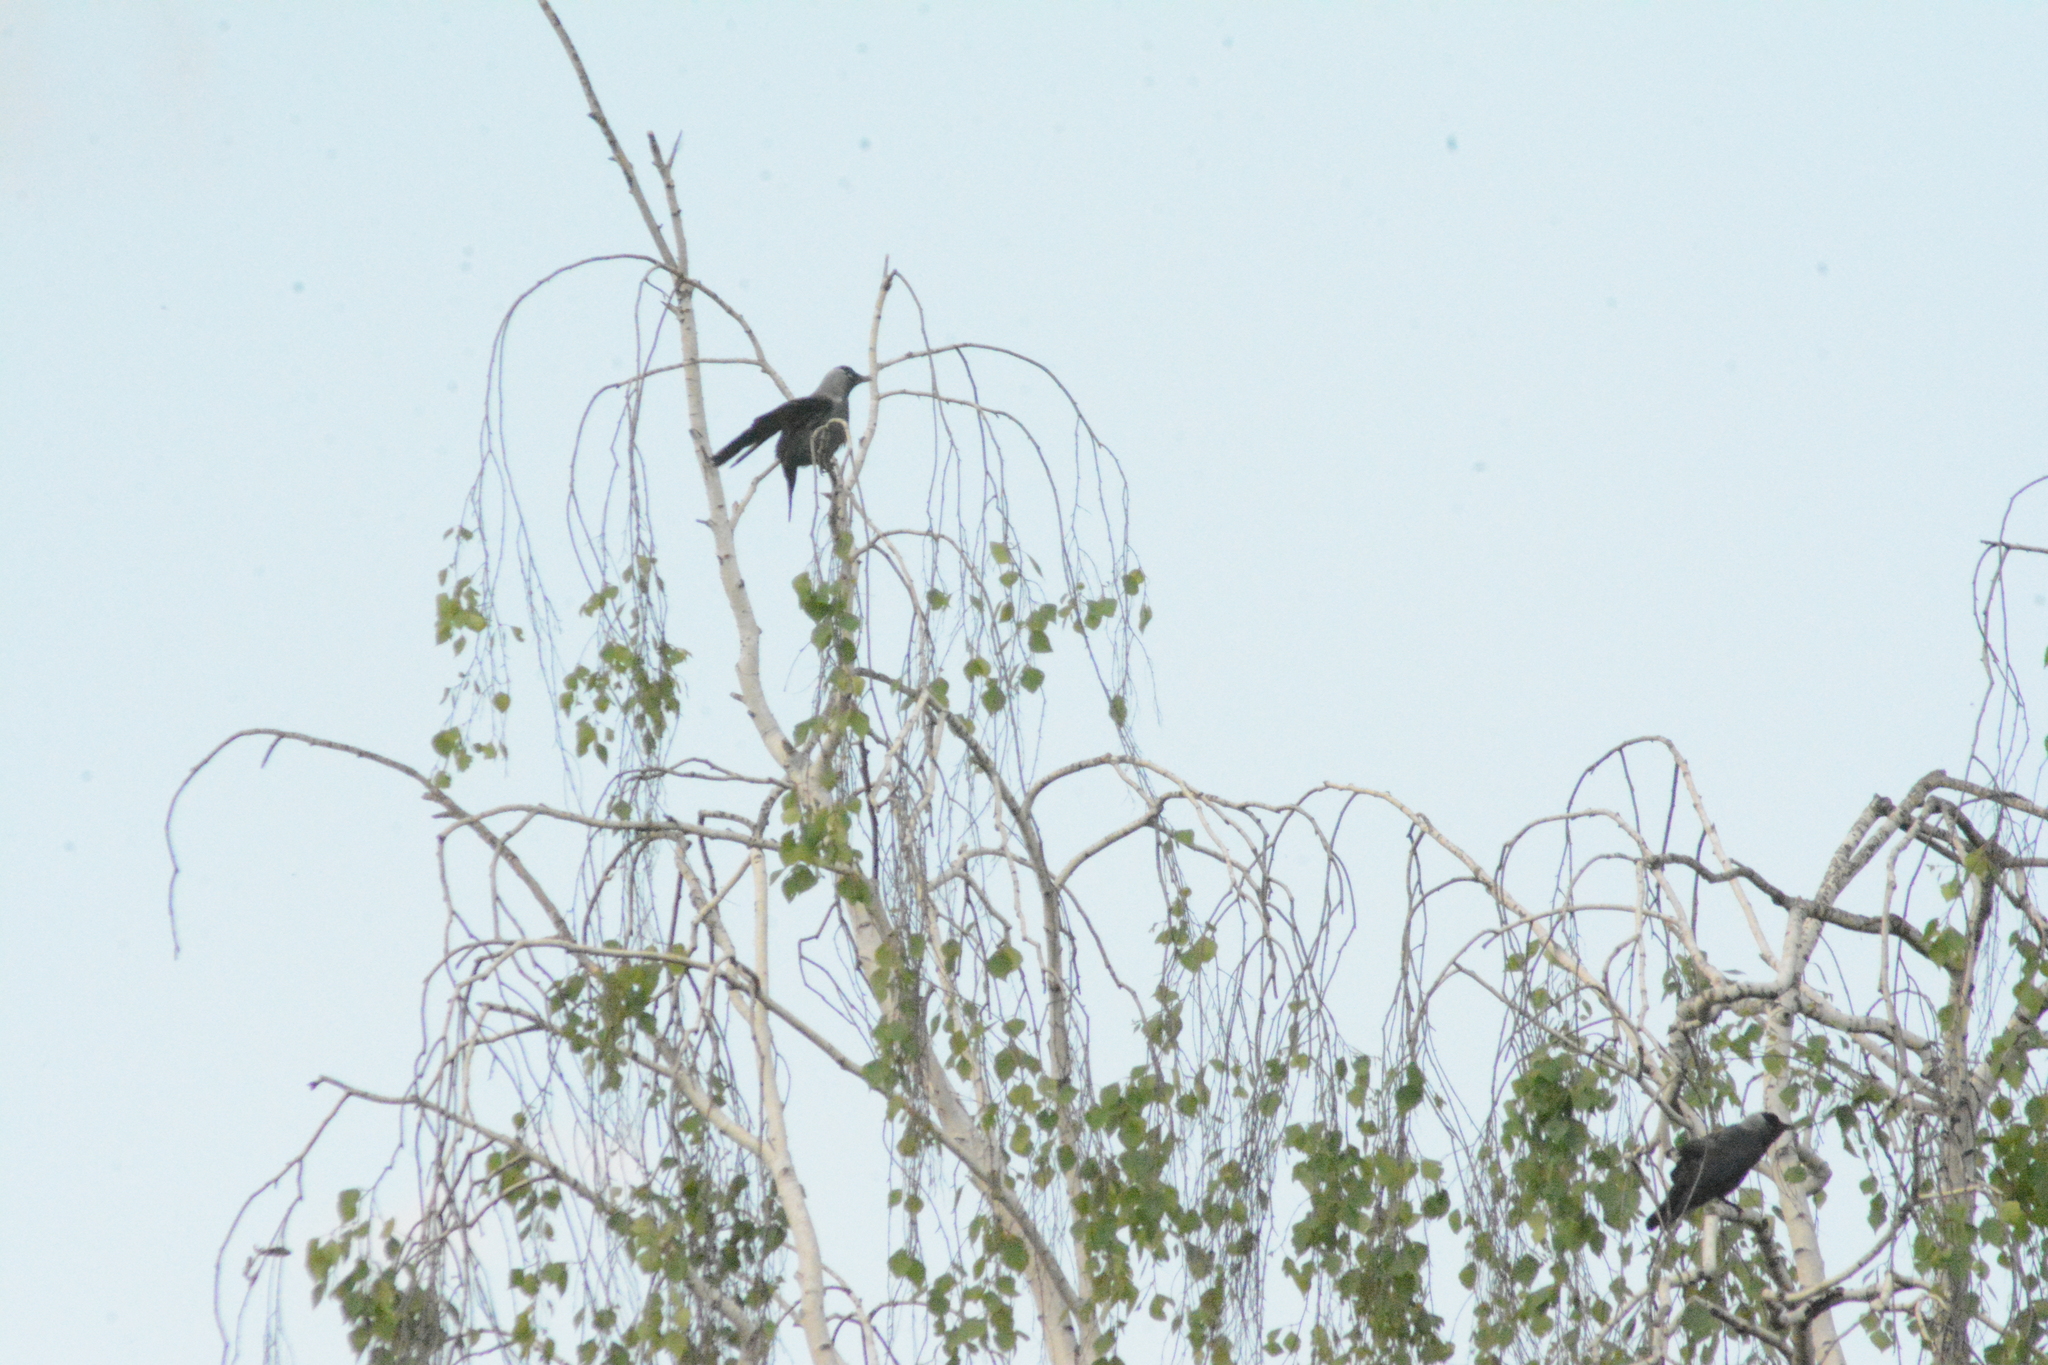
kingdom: Animalia
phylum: Chordata
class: Aves
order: Passeriformes
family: Corvidae
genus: Coloeus
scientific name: Coloeus monedula
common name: Western jackdaw
